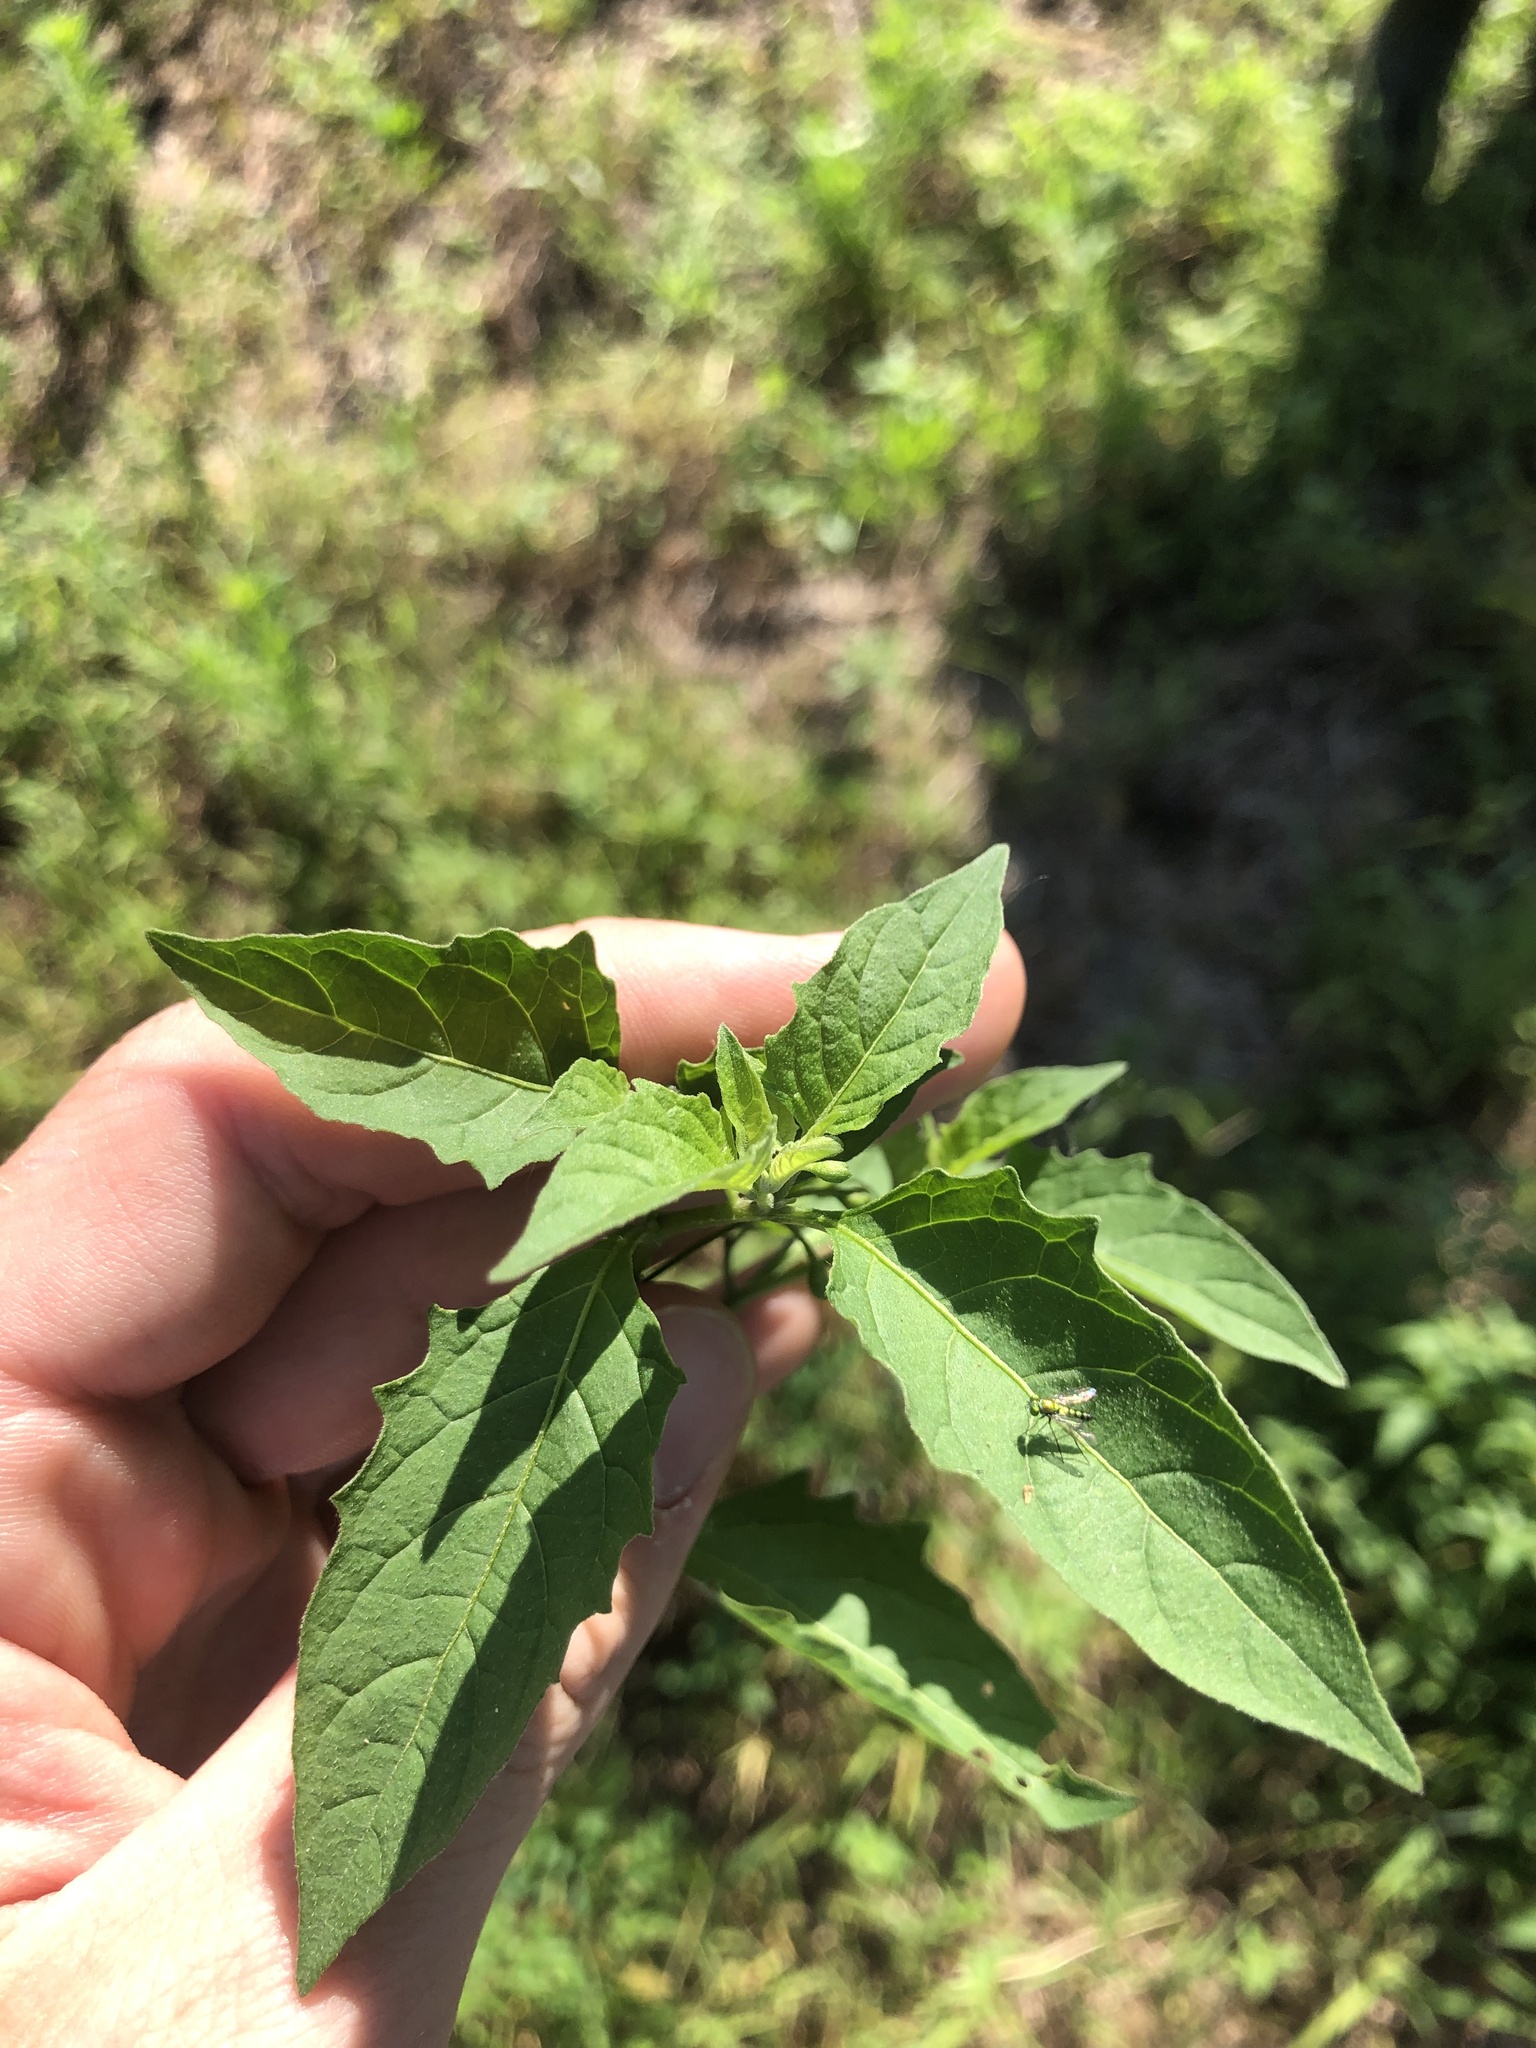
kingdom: Plantae
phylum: Tracheophyta
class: Magnoliopsida
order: Solanales
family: Solanaceae
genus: Solanum
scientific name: Solanum emulans
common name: Eastern black nightshade
